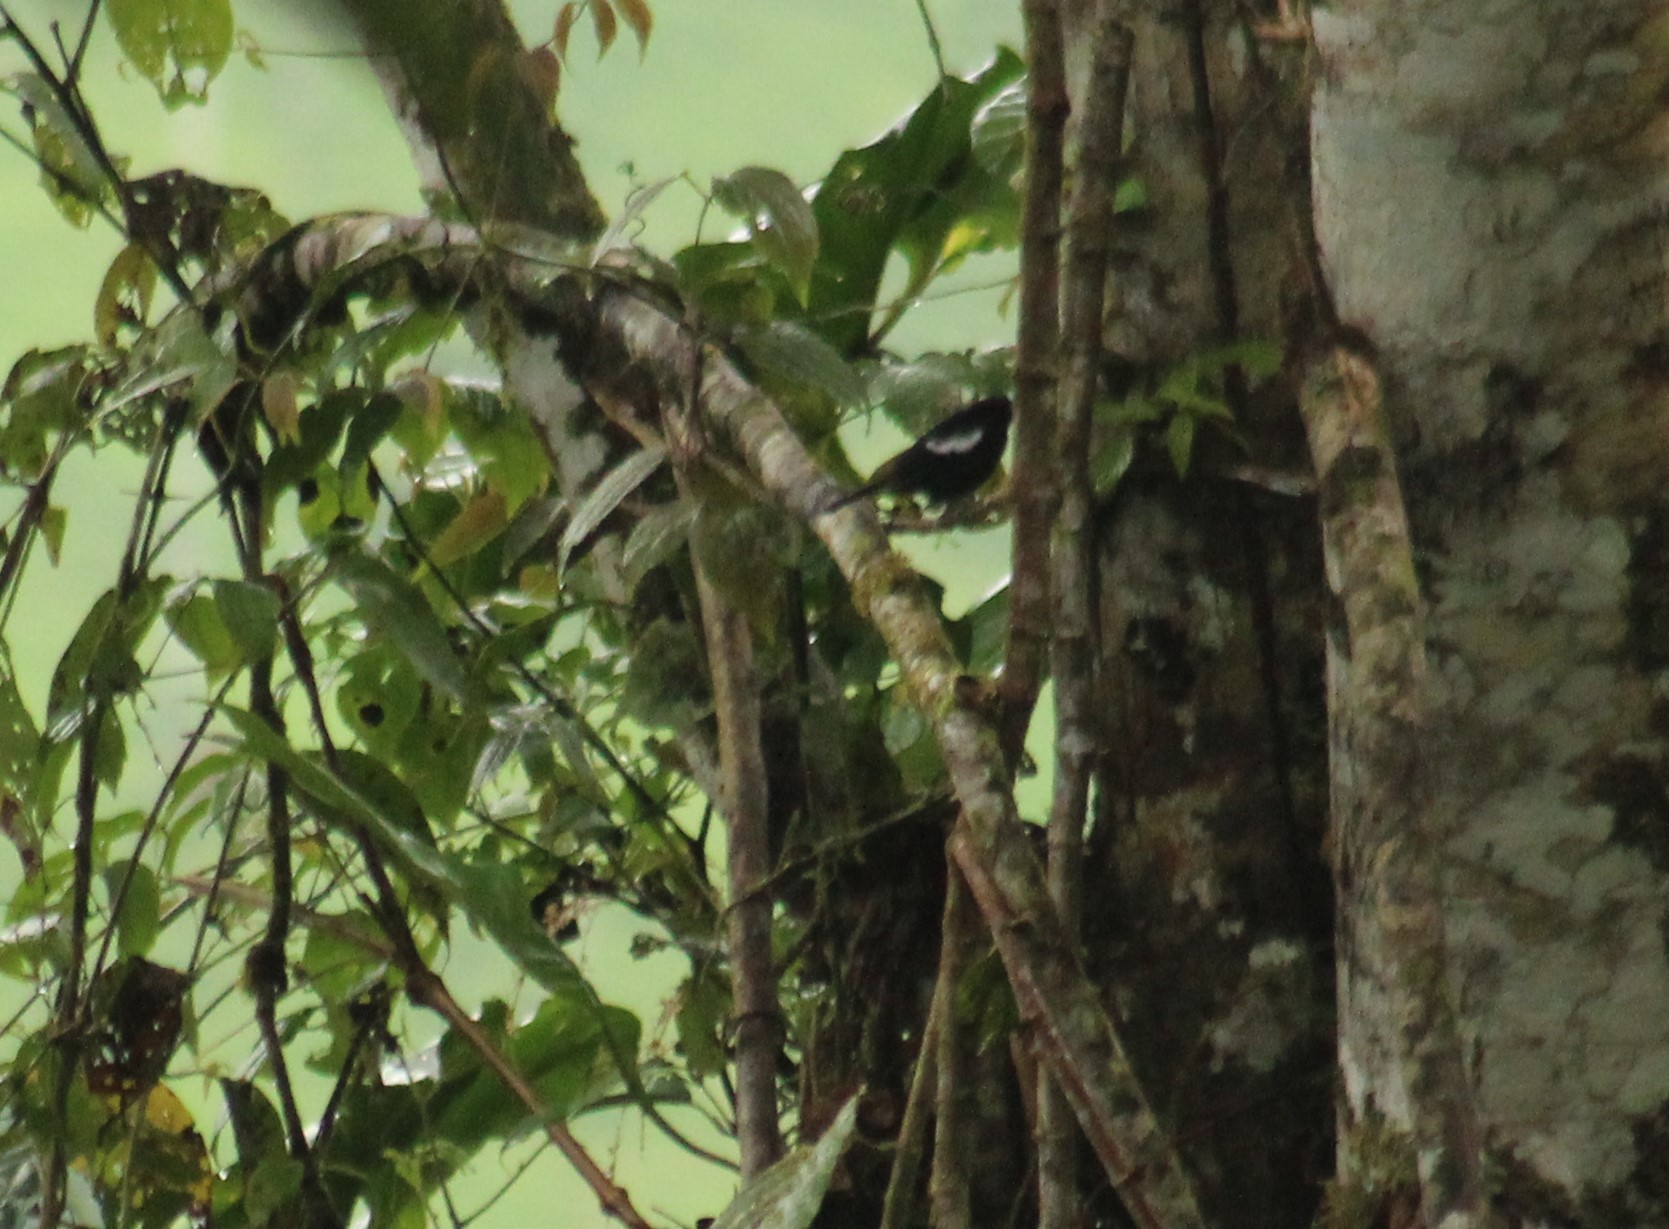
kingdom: Animalia
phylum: Chordata
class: Aves
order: Passeriformes
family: Thraupidae
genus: Loriotus
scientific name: Loriotus luctuosus
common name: White-shouldered tanager
